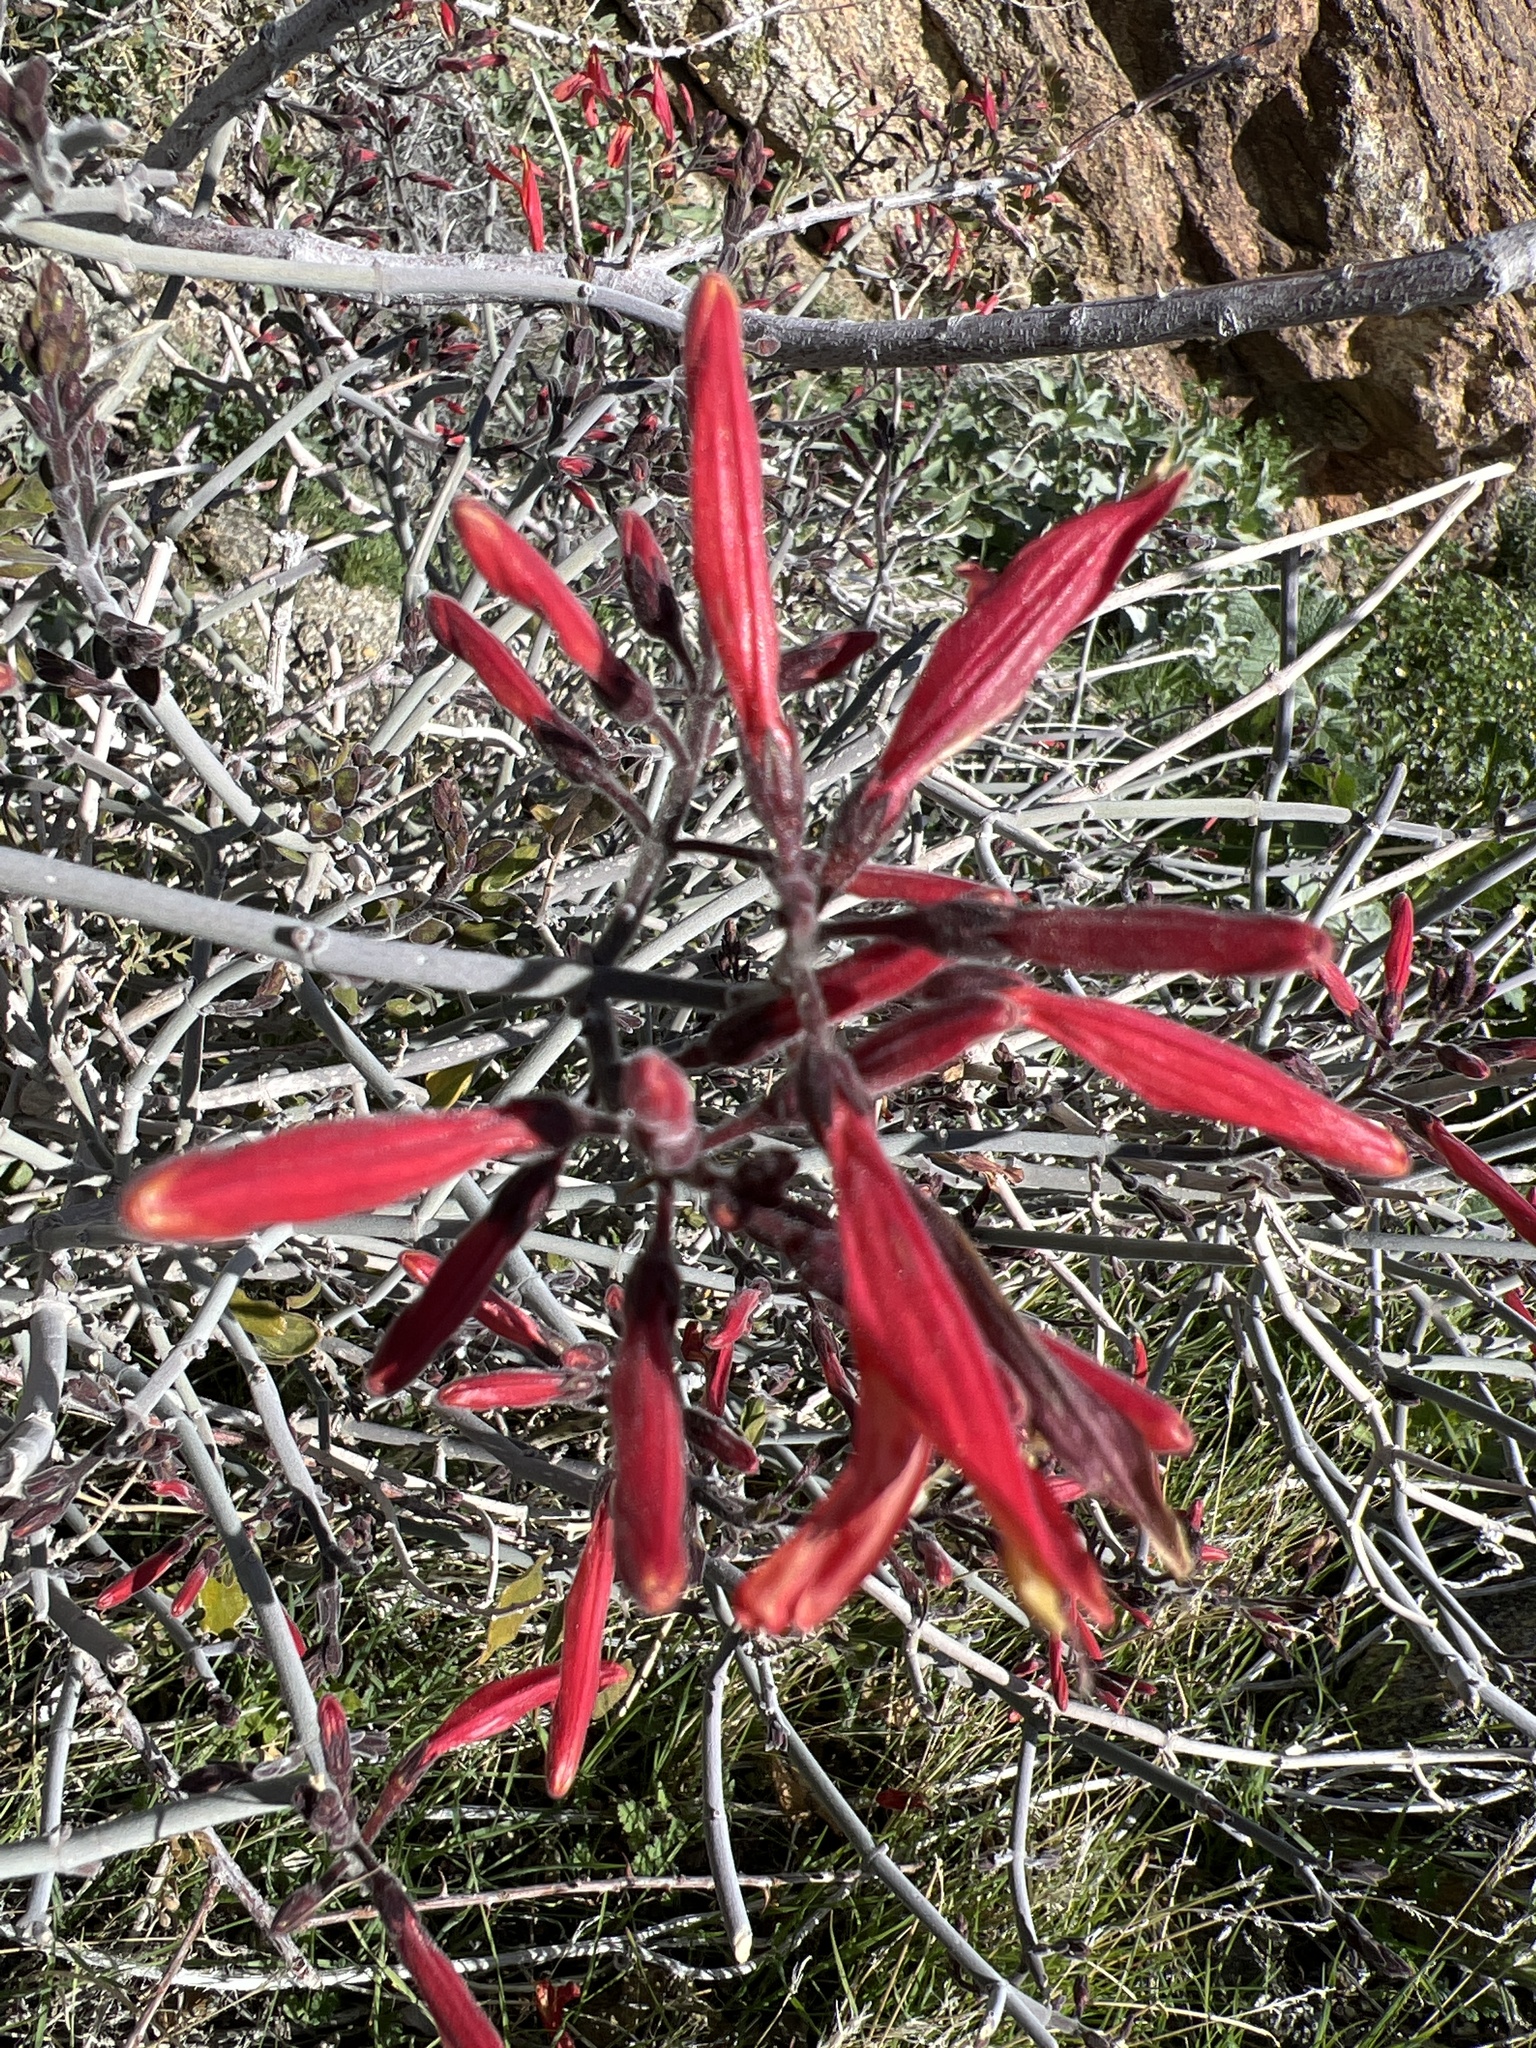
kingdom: Plantae
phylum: Tracheophyta
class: Magnoliopsida
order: Lamiales
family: Acanthaceae
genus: Justicia
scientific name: Justicia californica
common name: Chuparosa-honeysuckle
